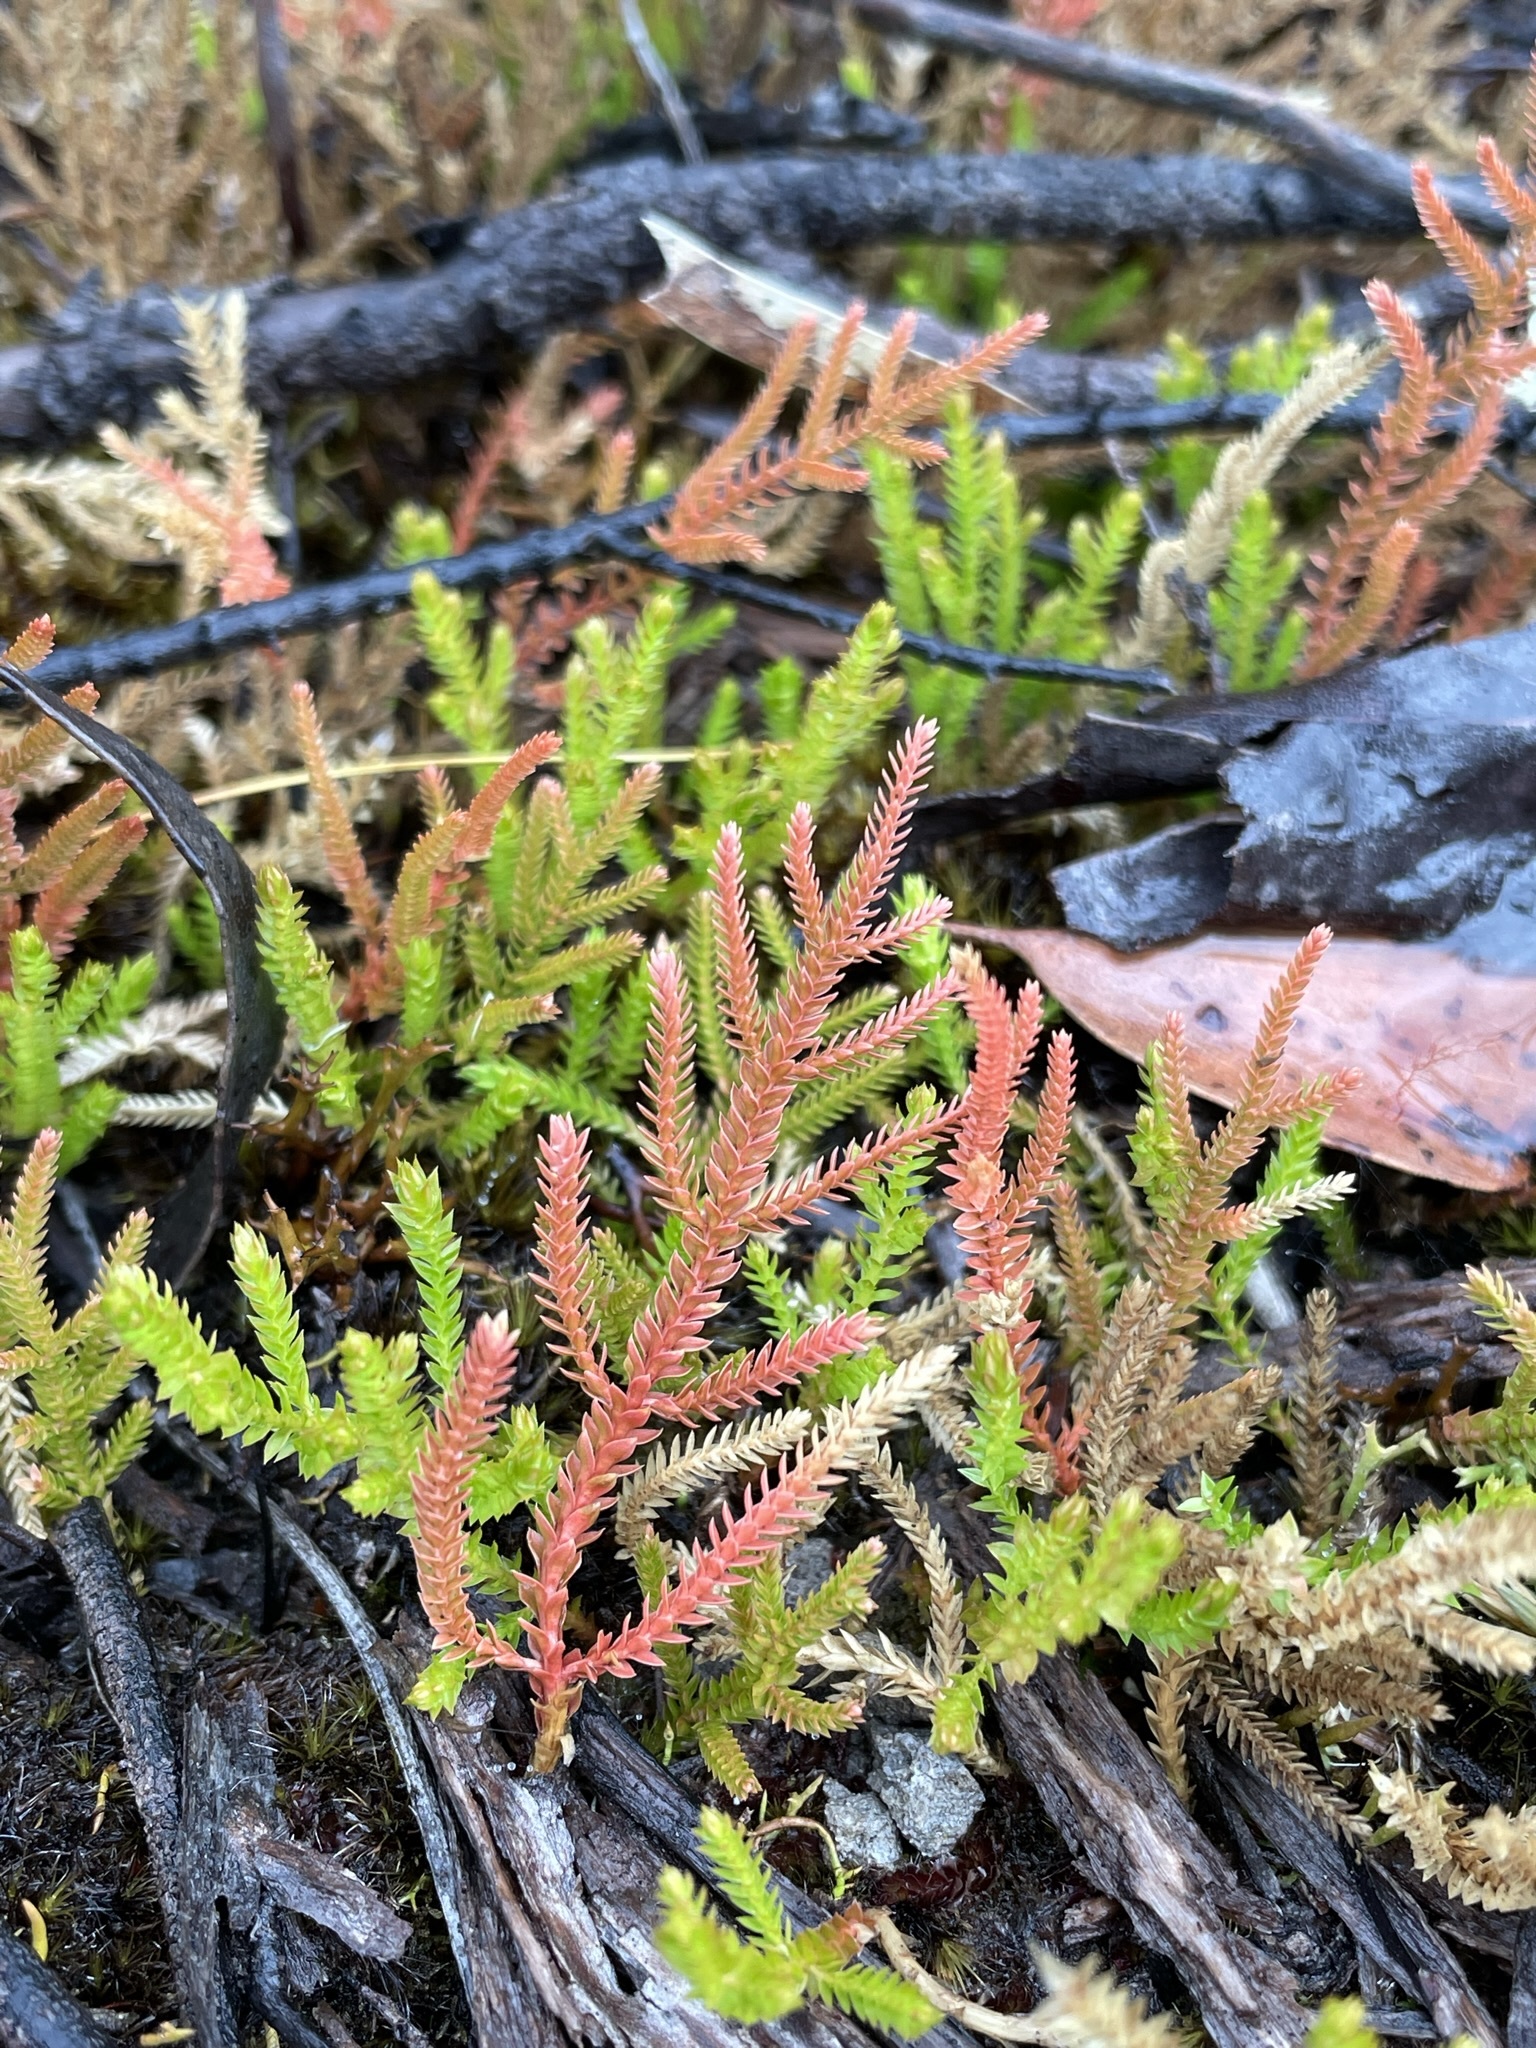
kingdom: Plantae
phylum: Tracheophyta
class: Lycopodiopsida
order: Selaginellales
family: Selaginellaceae
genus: Selaginella
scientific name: Selaginella uliginosa
